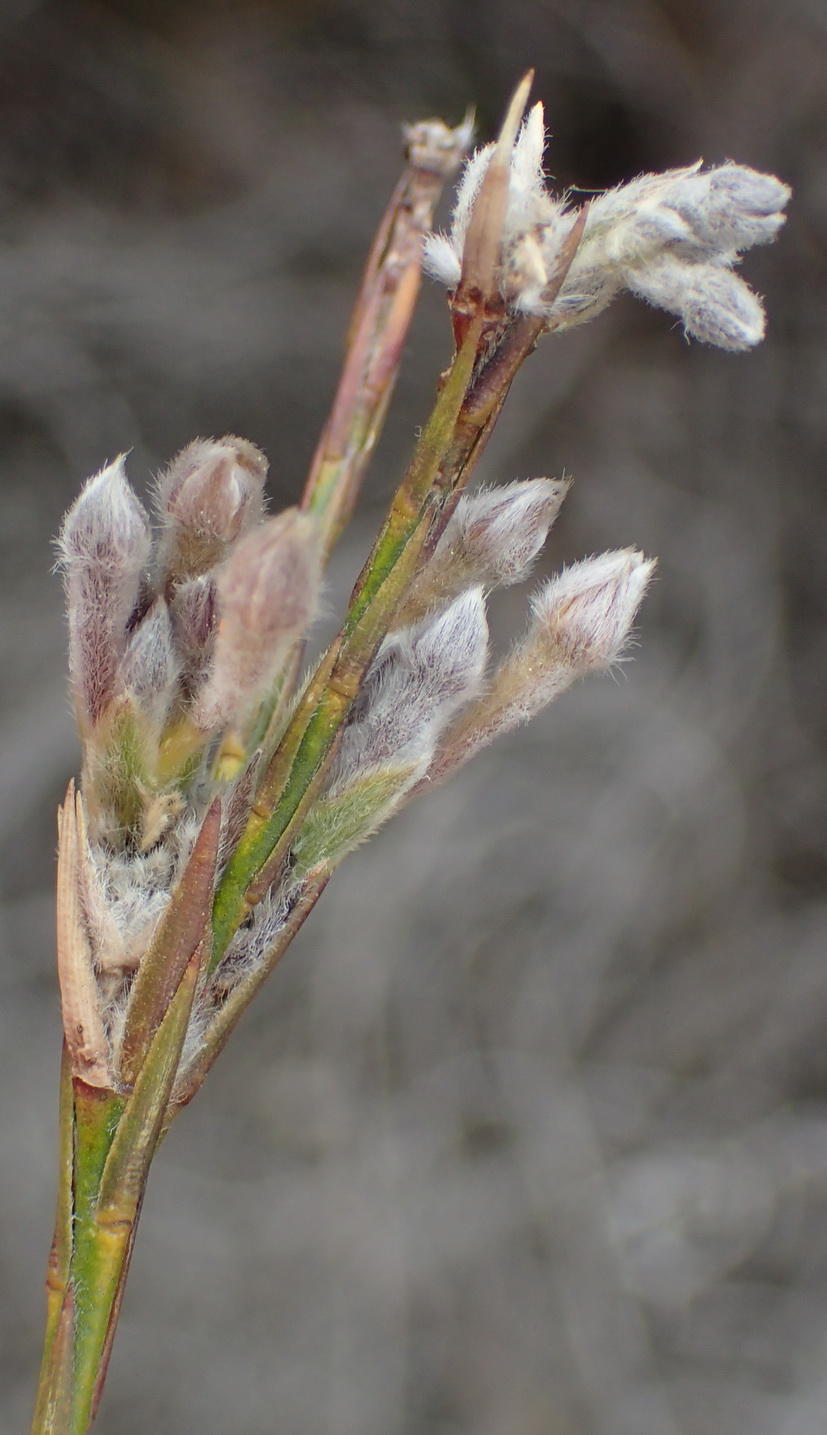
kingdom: Plantae
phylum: Tracheophyta
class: Magnoliopsida
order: Malvales
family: Thymelaeaceae
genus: Gnidia
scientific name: Gnidia laxa
